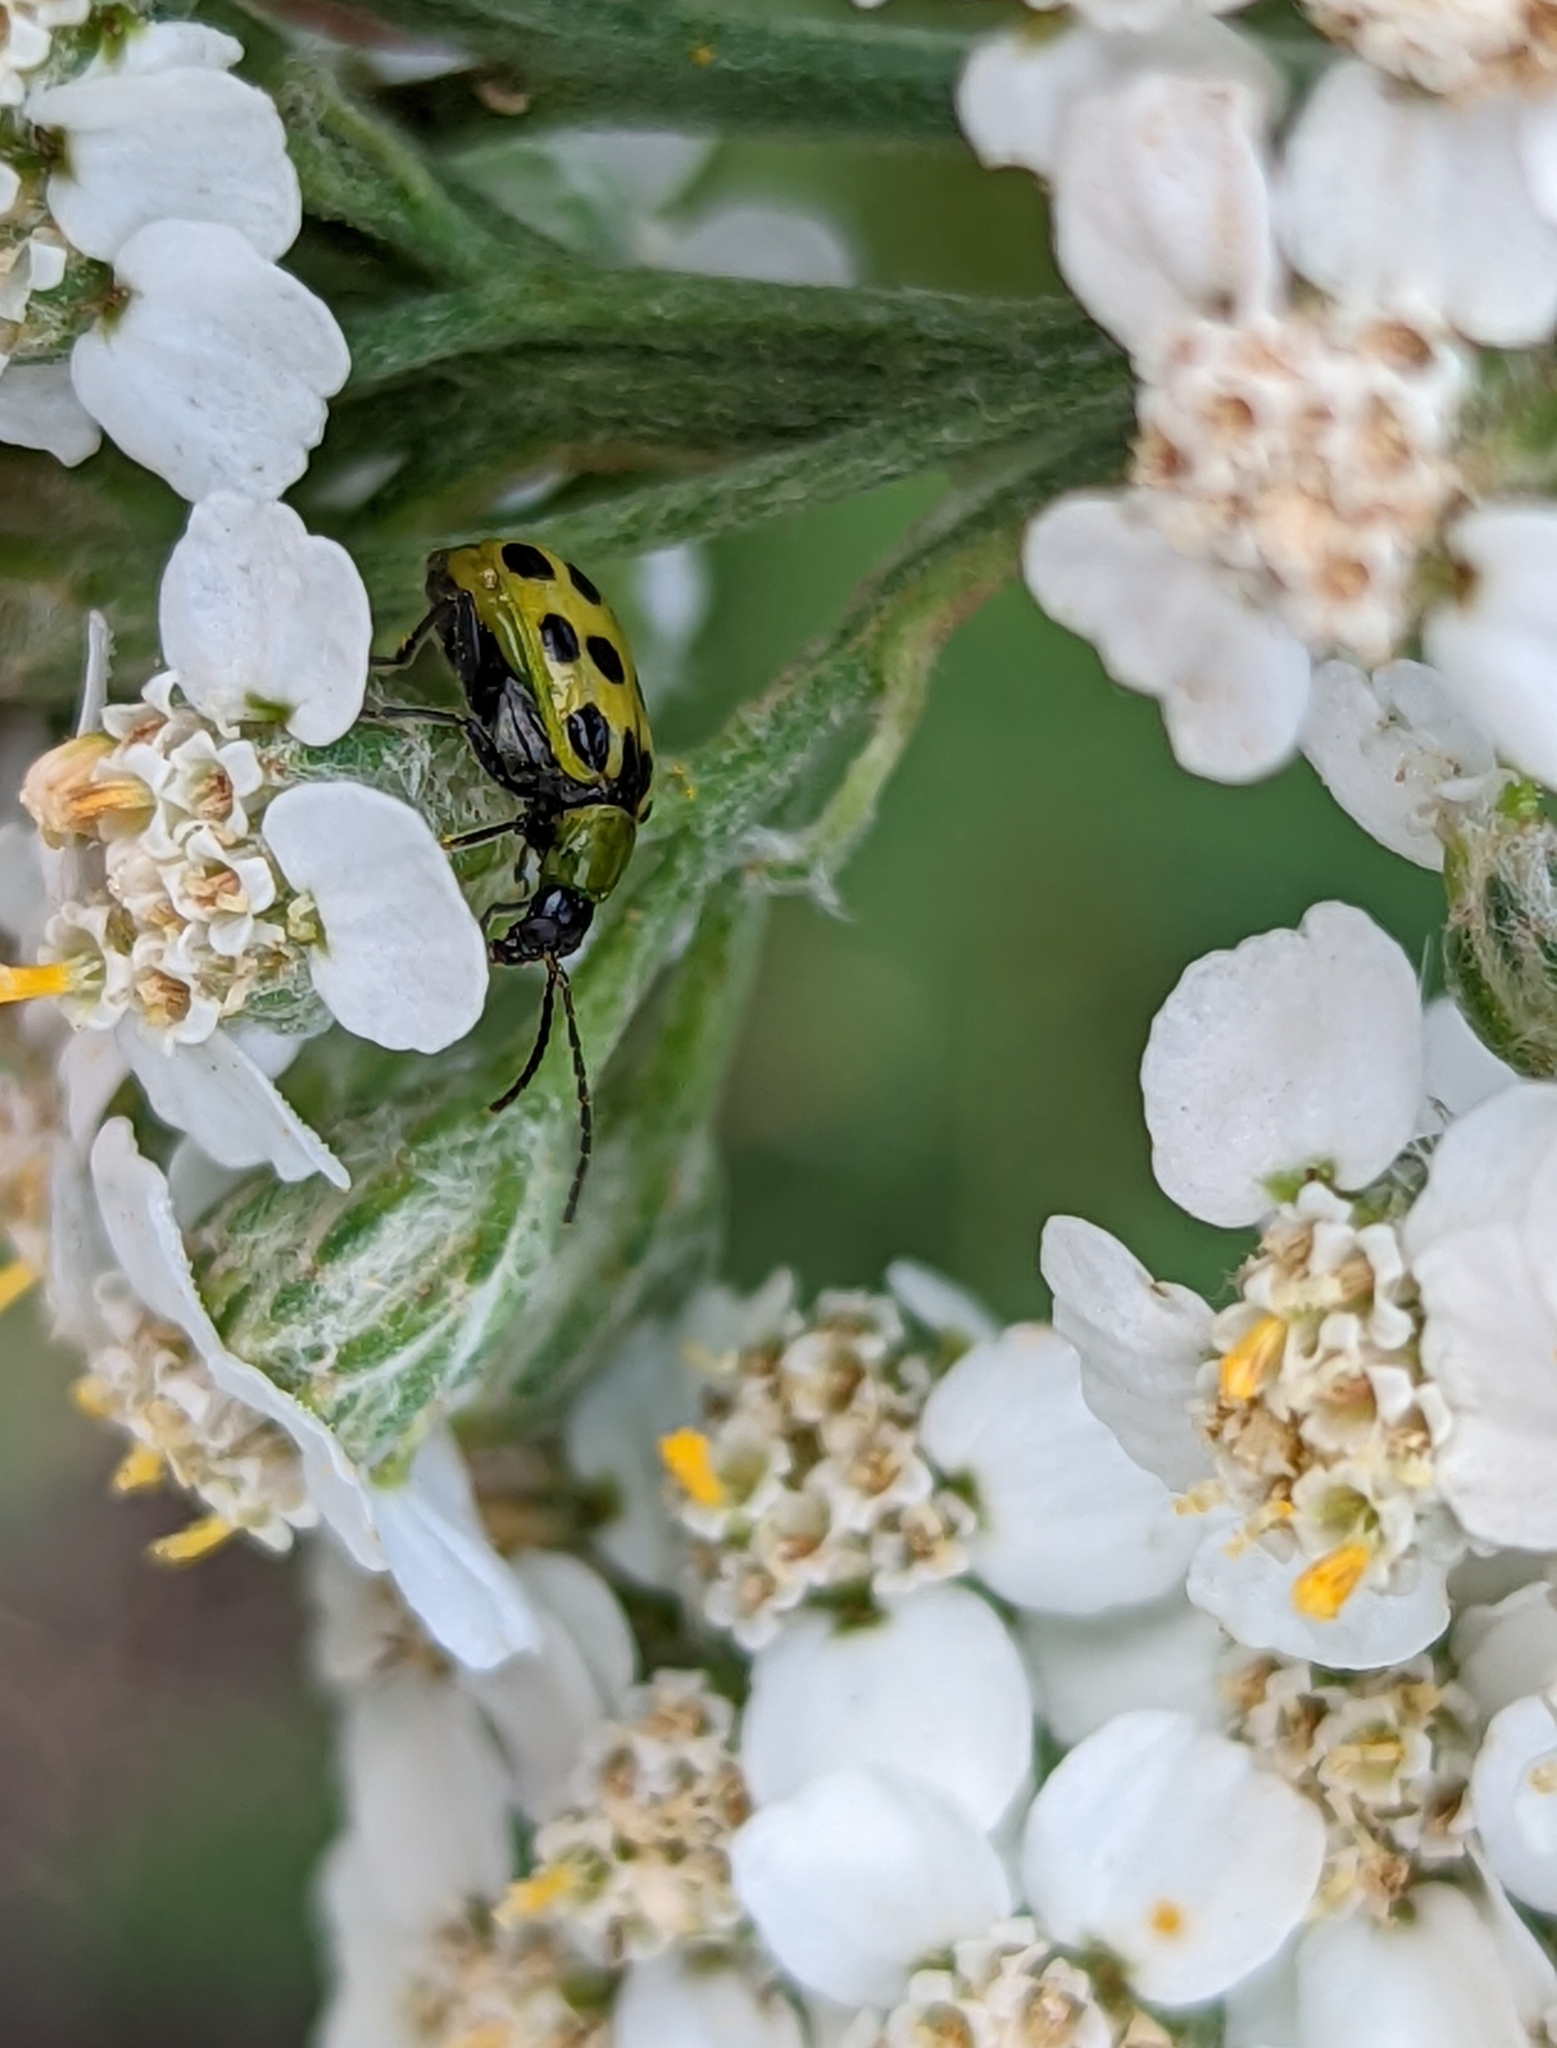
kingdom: Animalia
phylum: Arthropoda
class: Insecta
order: Coleoptera
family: Chrysomelidae
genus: Diabrotica
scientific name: Diabrotica undecimpunctata
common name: Spotted cucumber beetle
